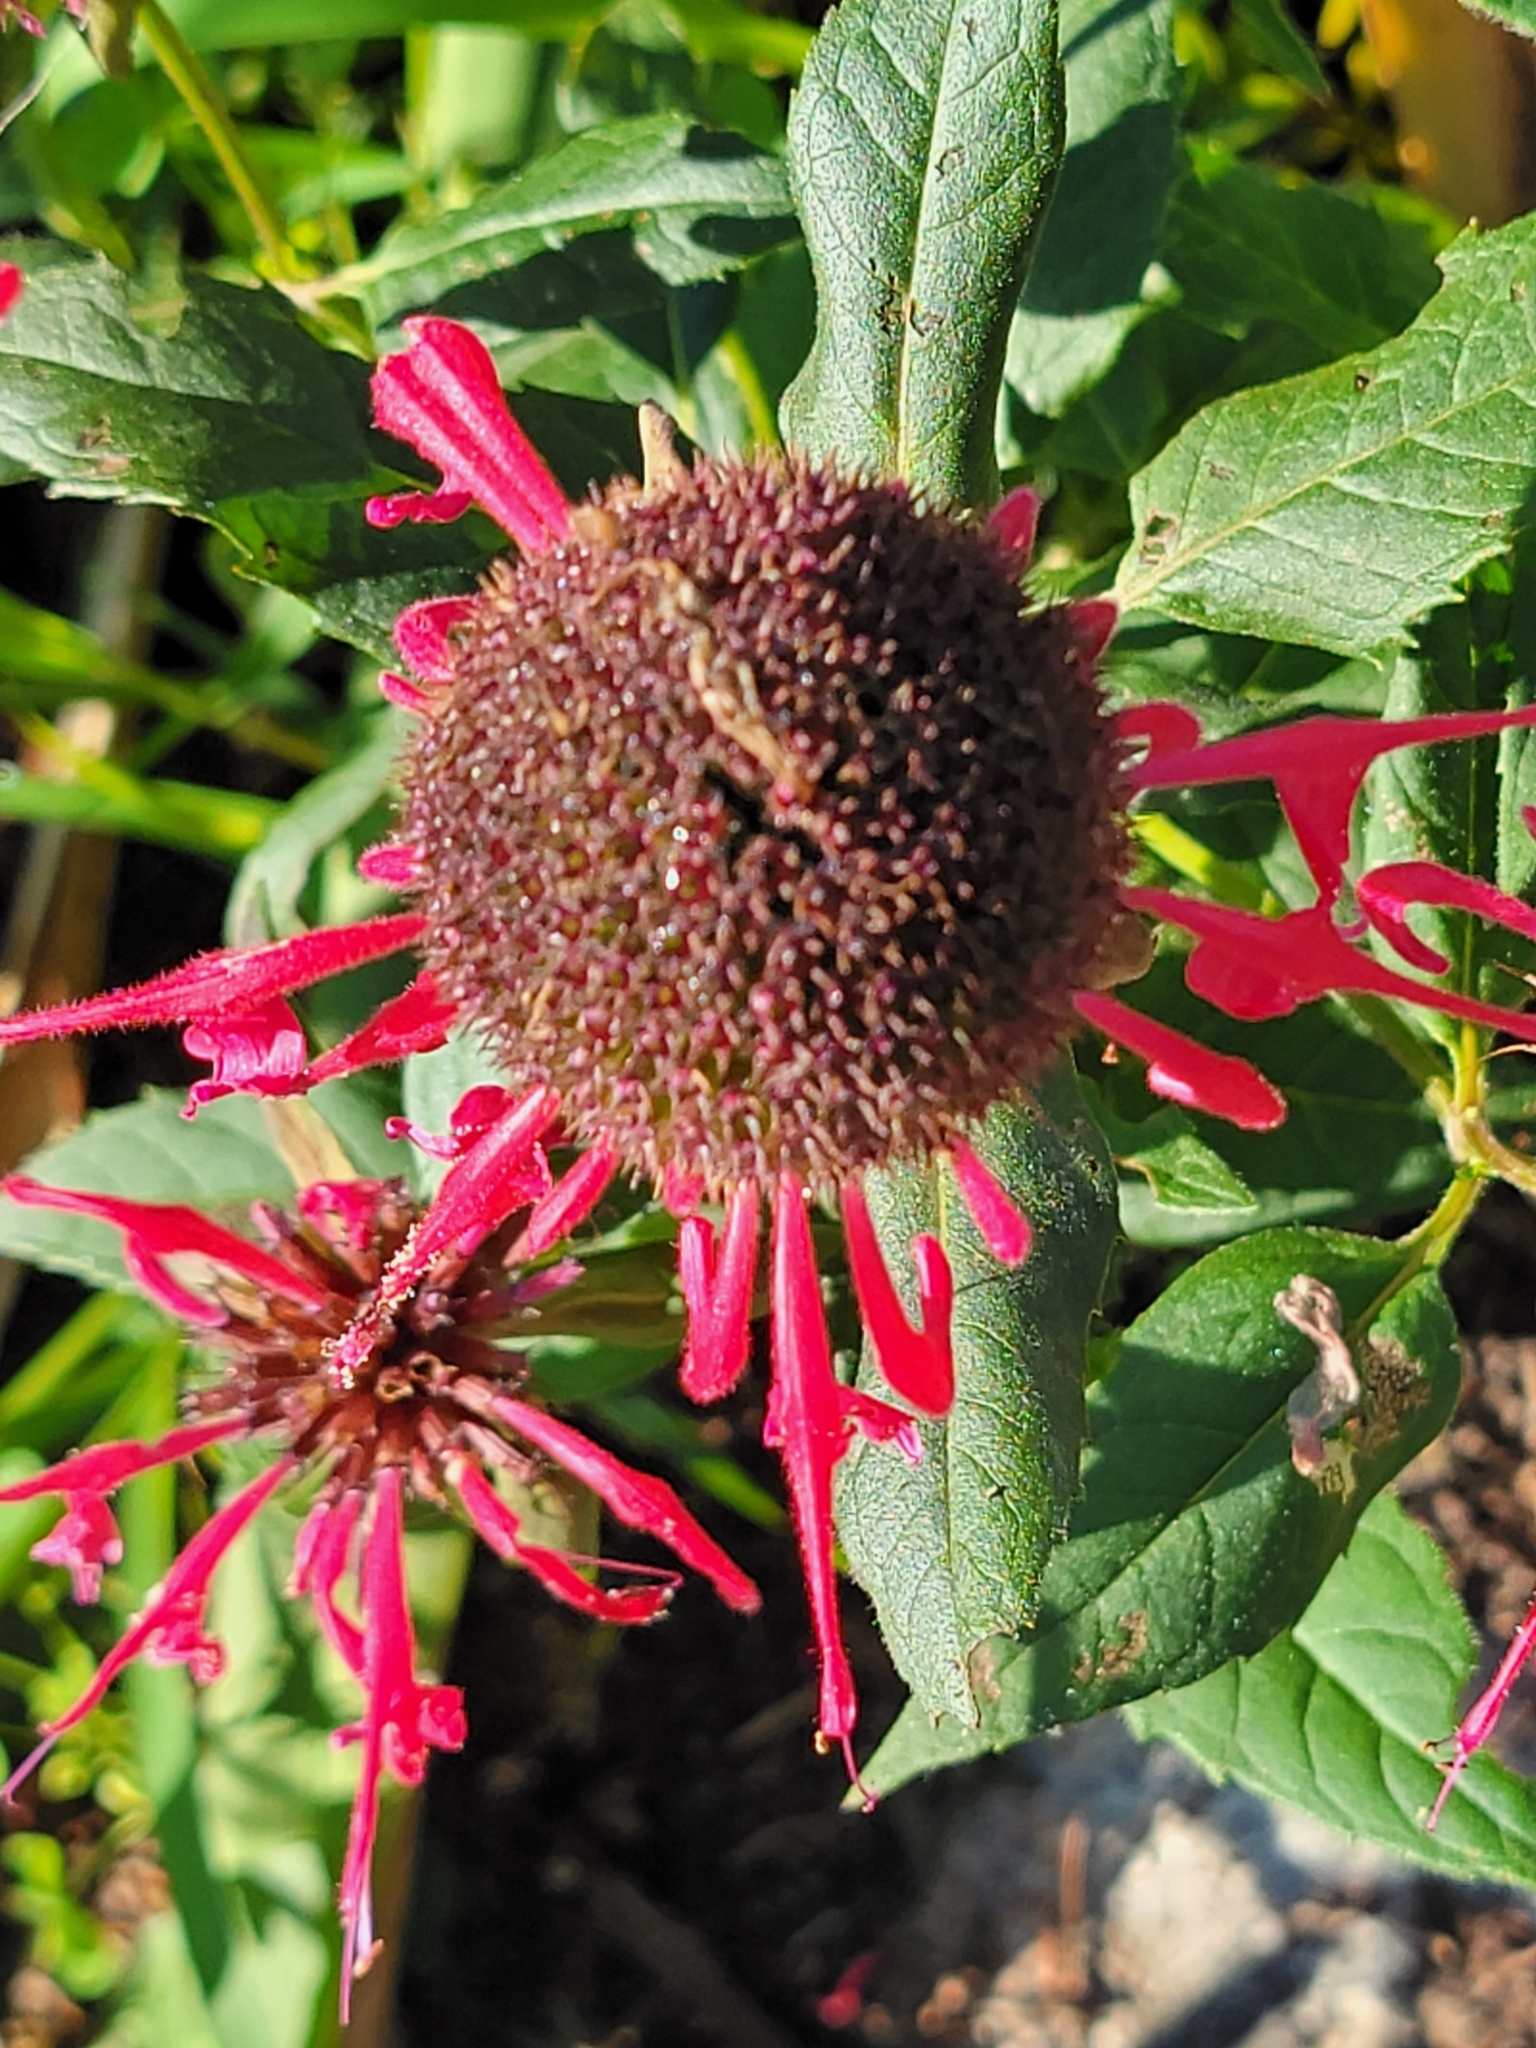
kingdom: Plantae
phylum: Tracheophyta
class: Magnoliopsida
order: Lamiales
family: Lamiaceae
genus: Monarda
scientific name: Monarda didyma
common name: Beebalm
